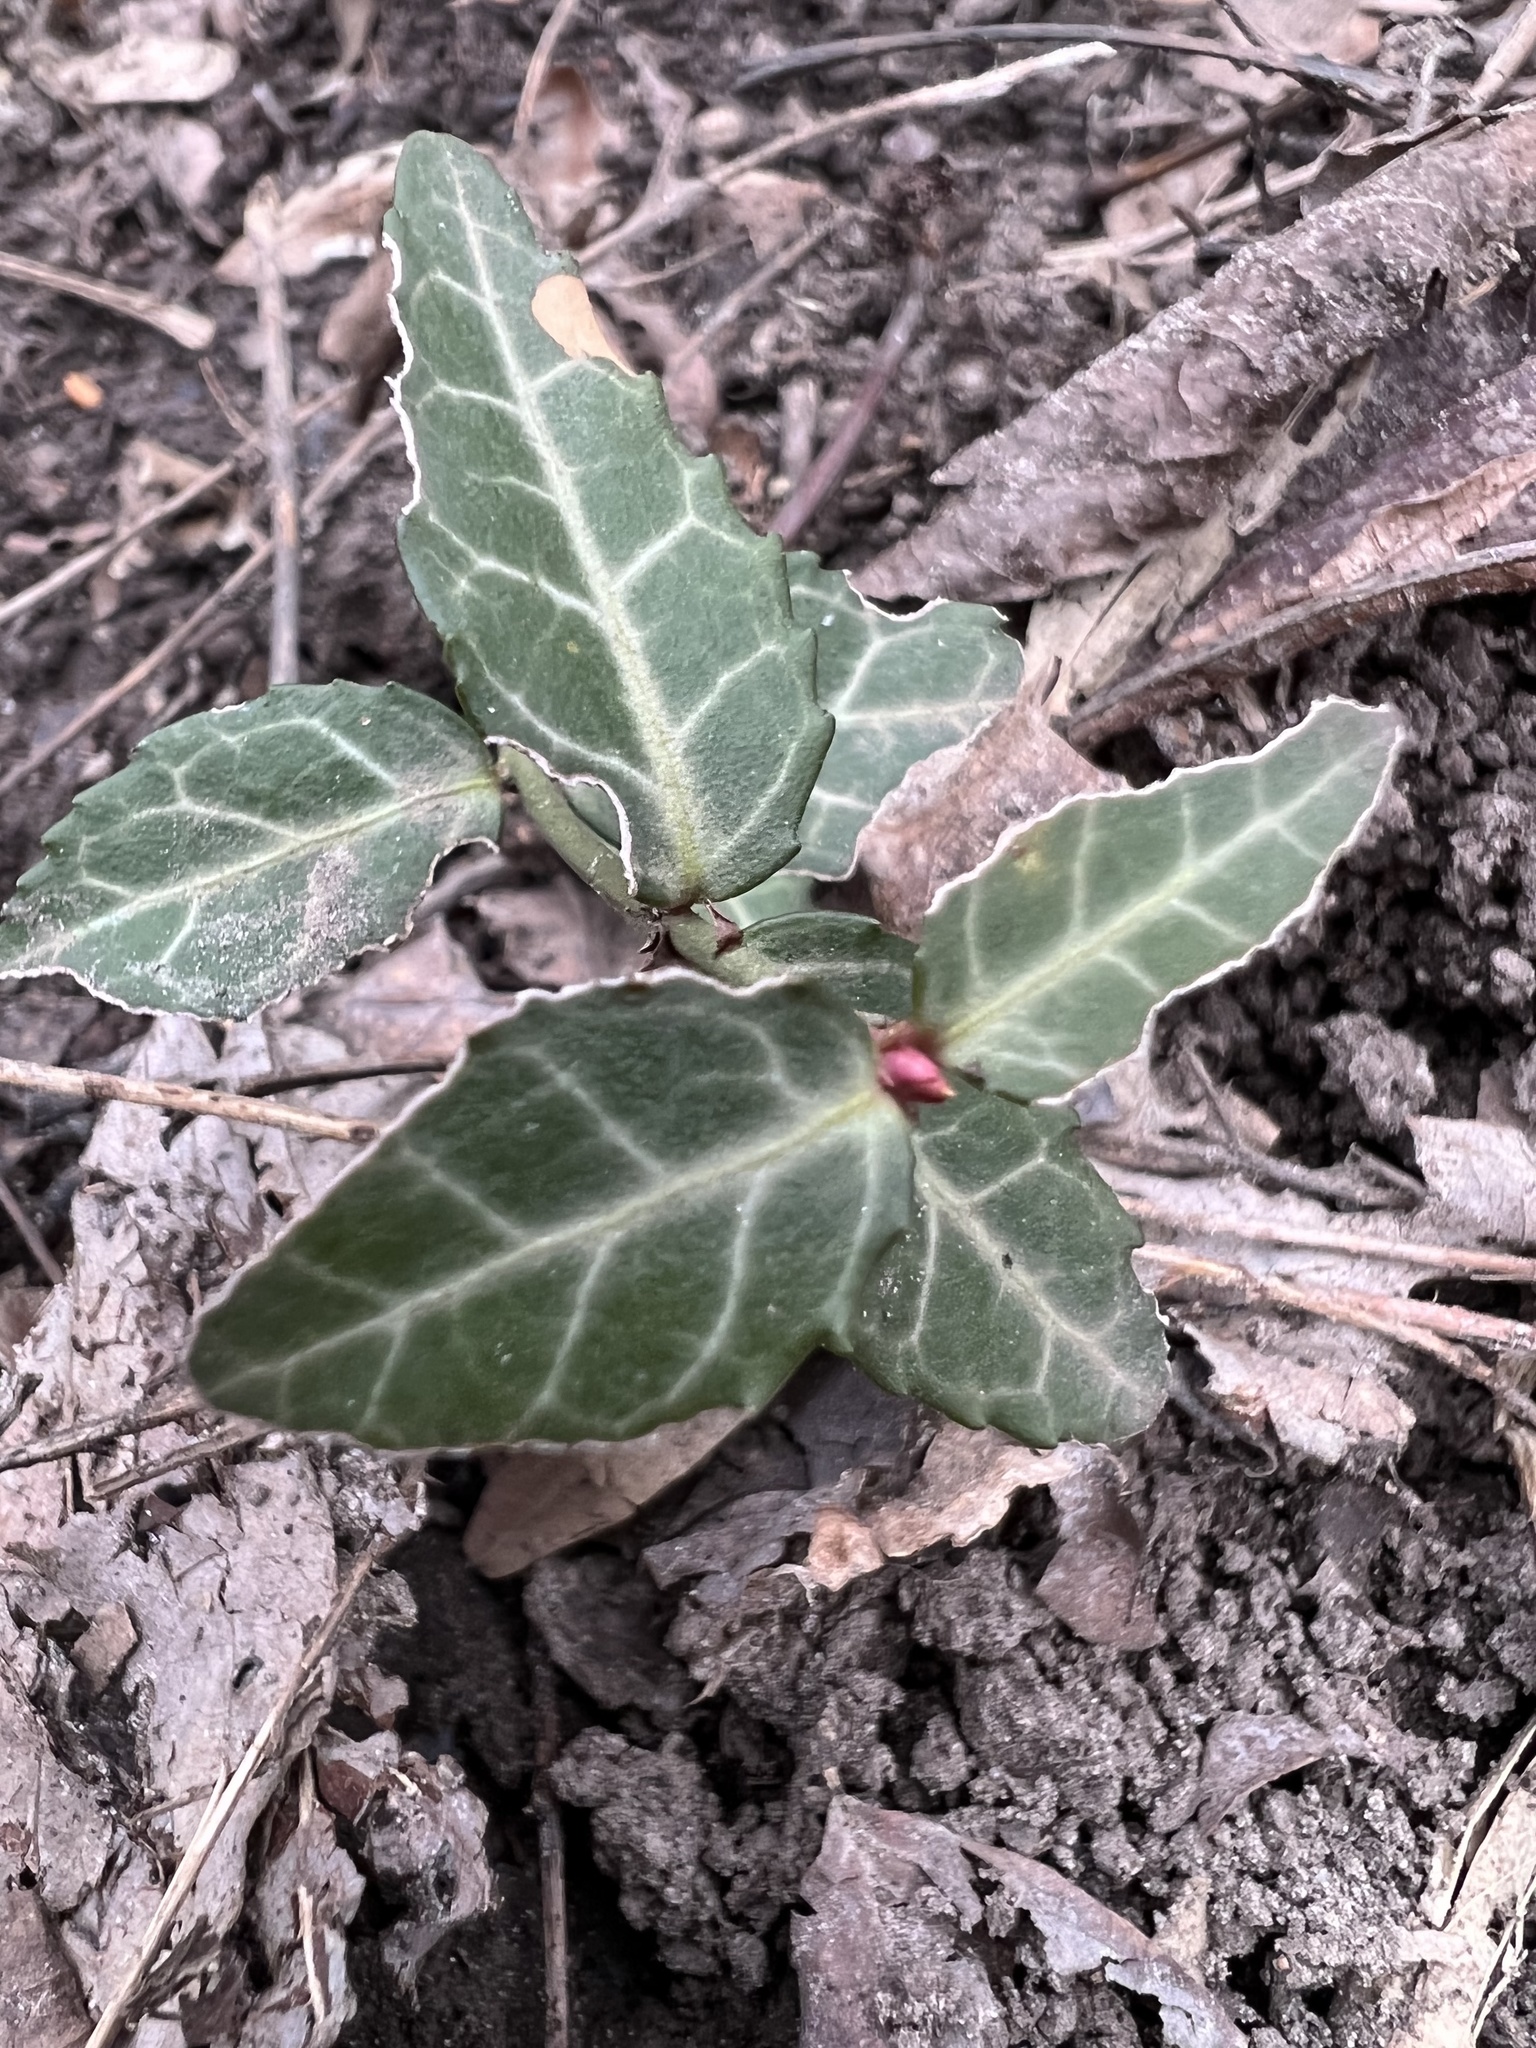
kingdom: Plantae
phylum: Tracheophyta
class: Magnoliopsida
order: Celastrales
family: Celastraceae
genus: Euonymus
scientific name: Euonymus fortunei
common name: Climbing euonymus
